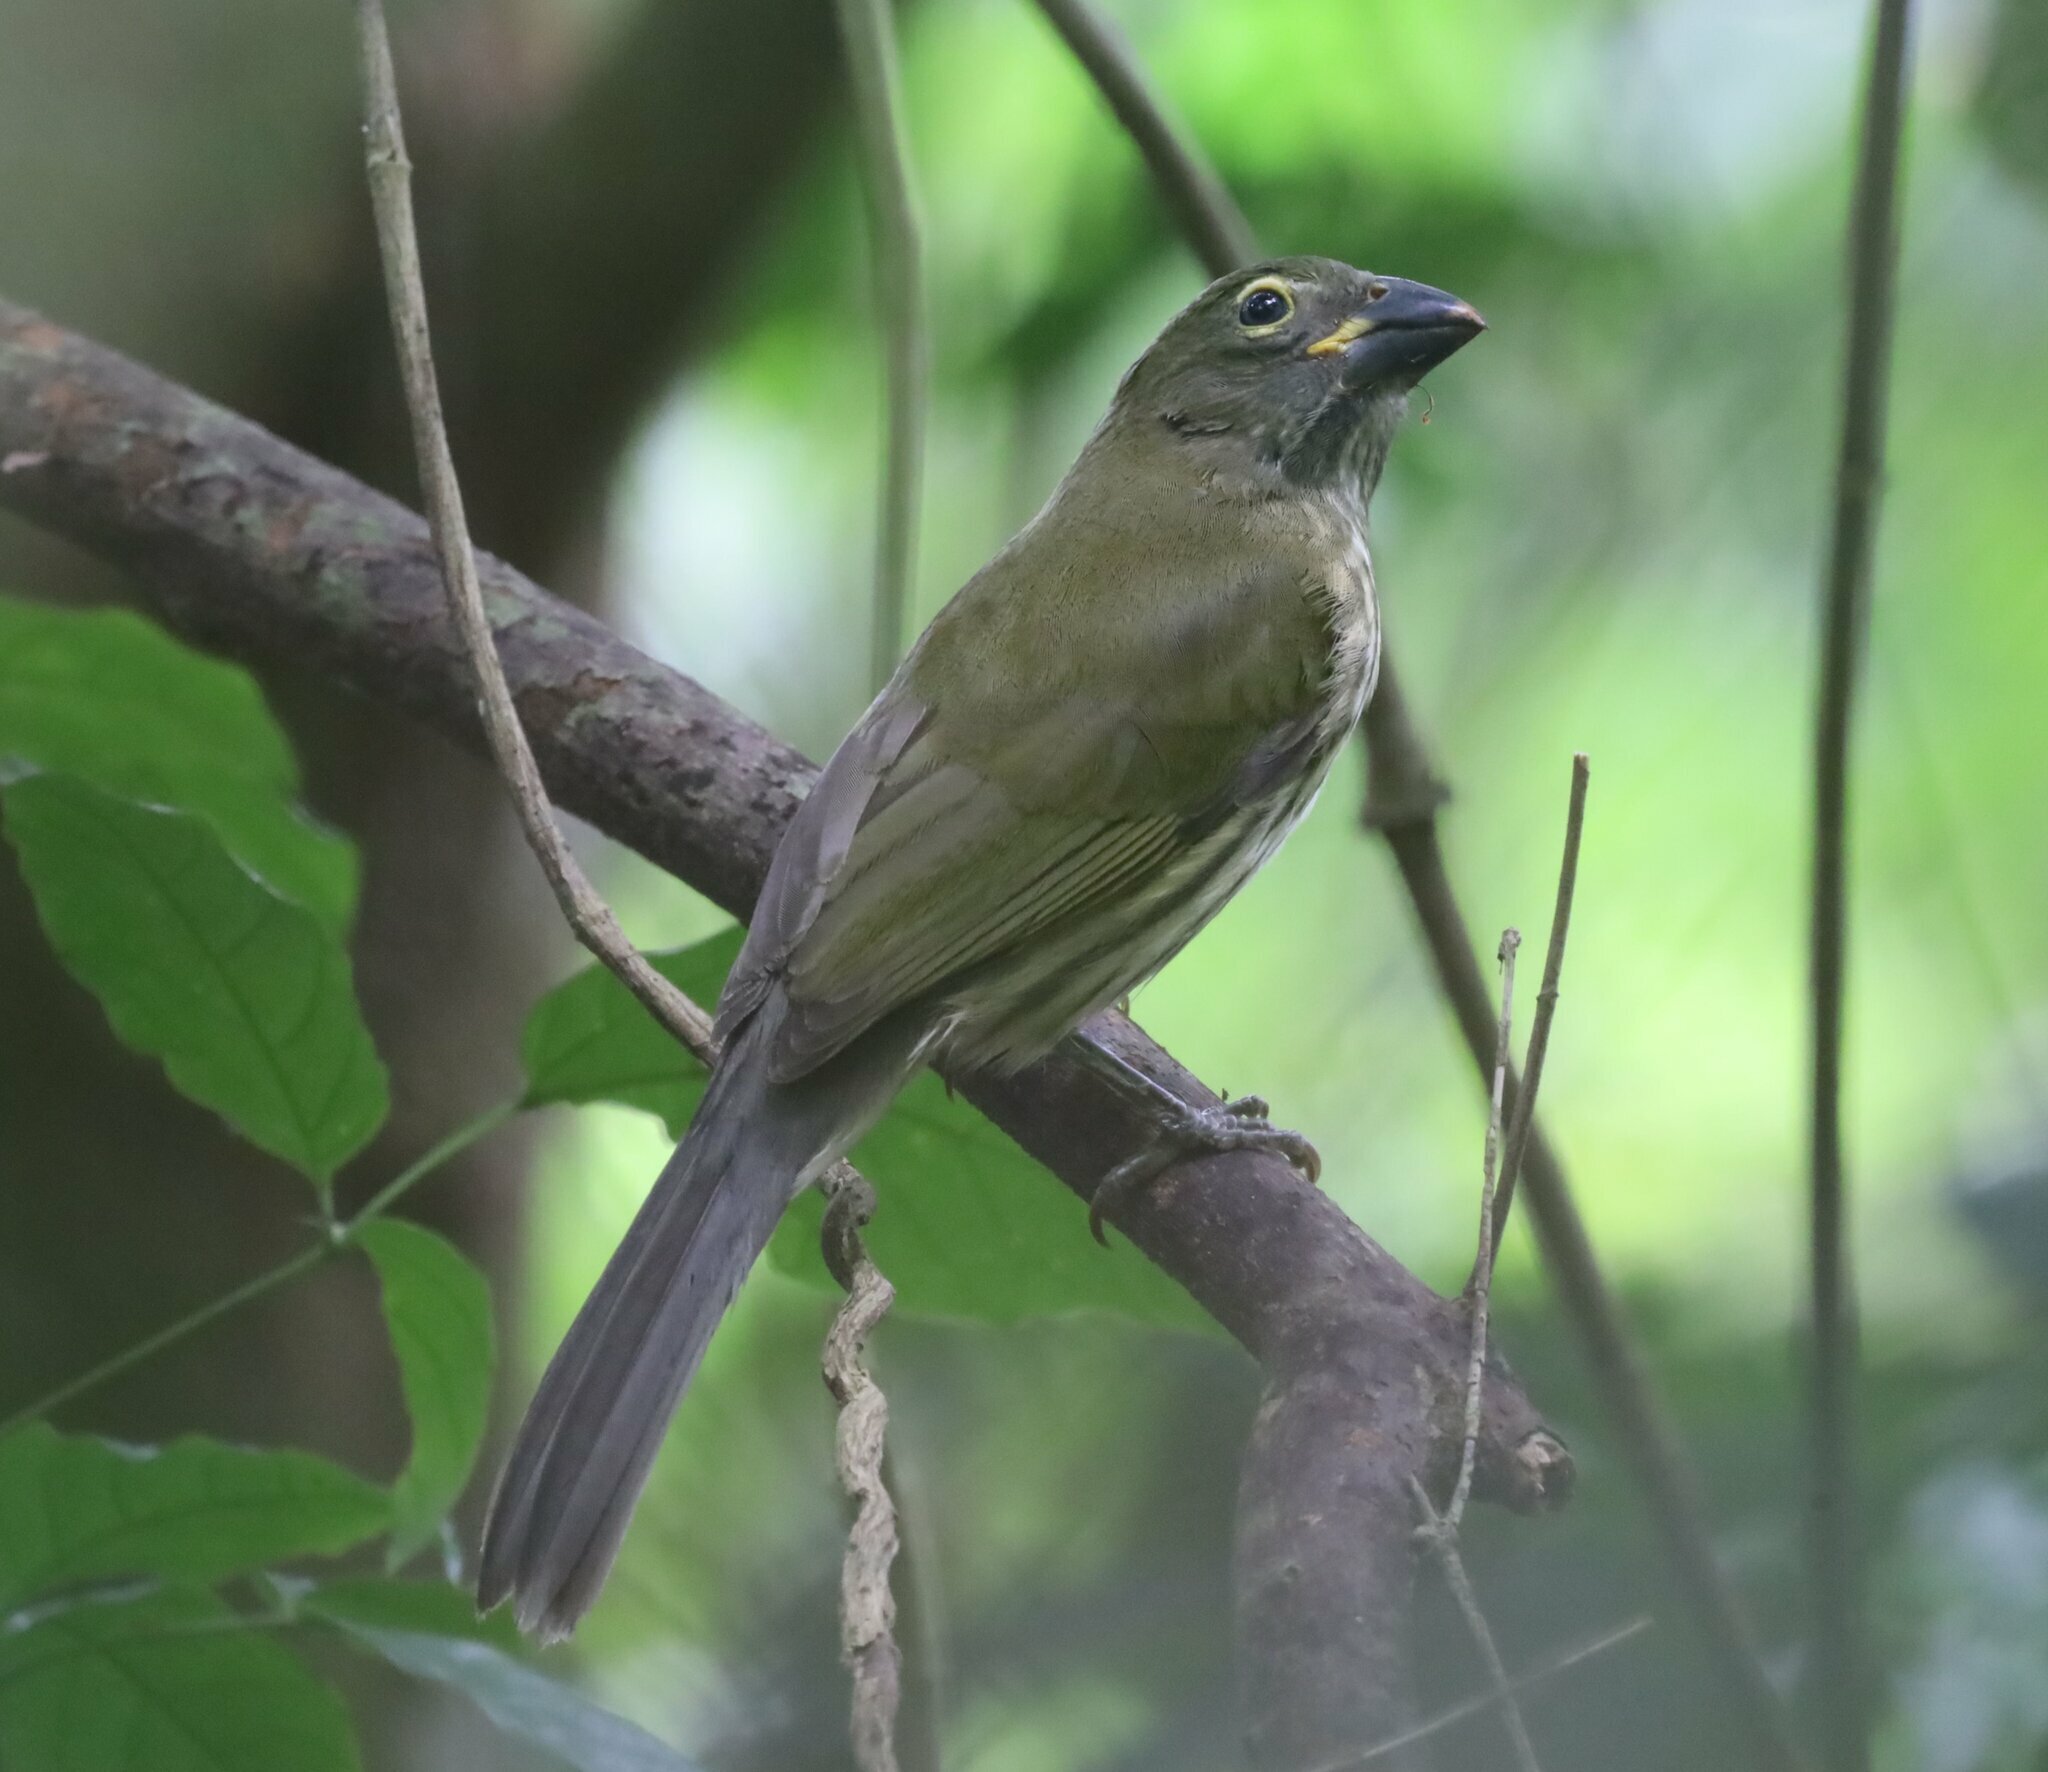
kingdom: Animalia
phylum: Chordata
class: Aves
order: Passeriformes
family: Thraupidae
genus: Saltator
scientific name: Saltator striatipectus
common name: Streaked saltator
